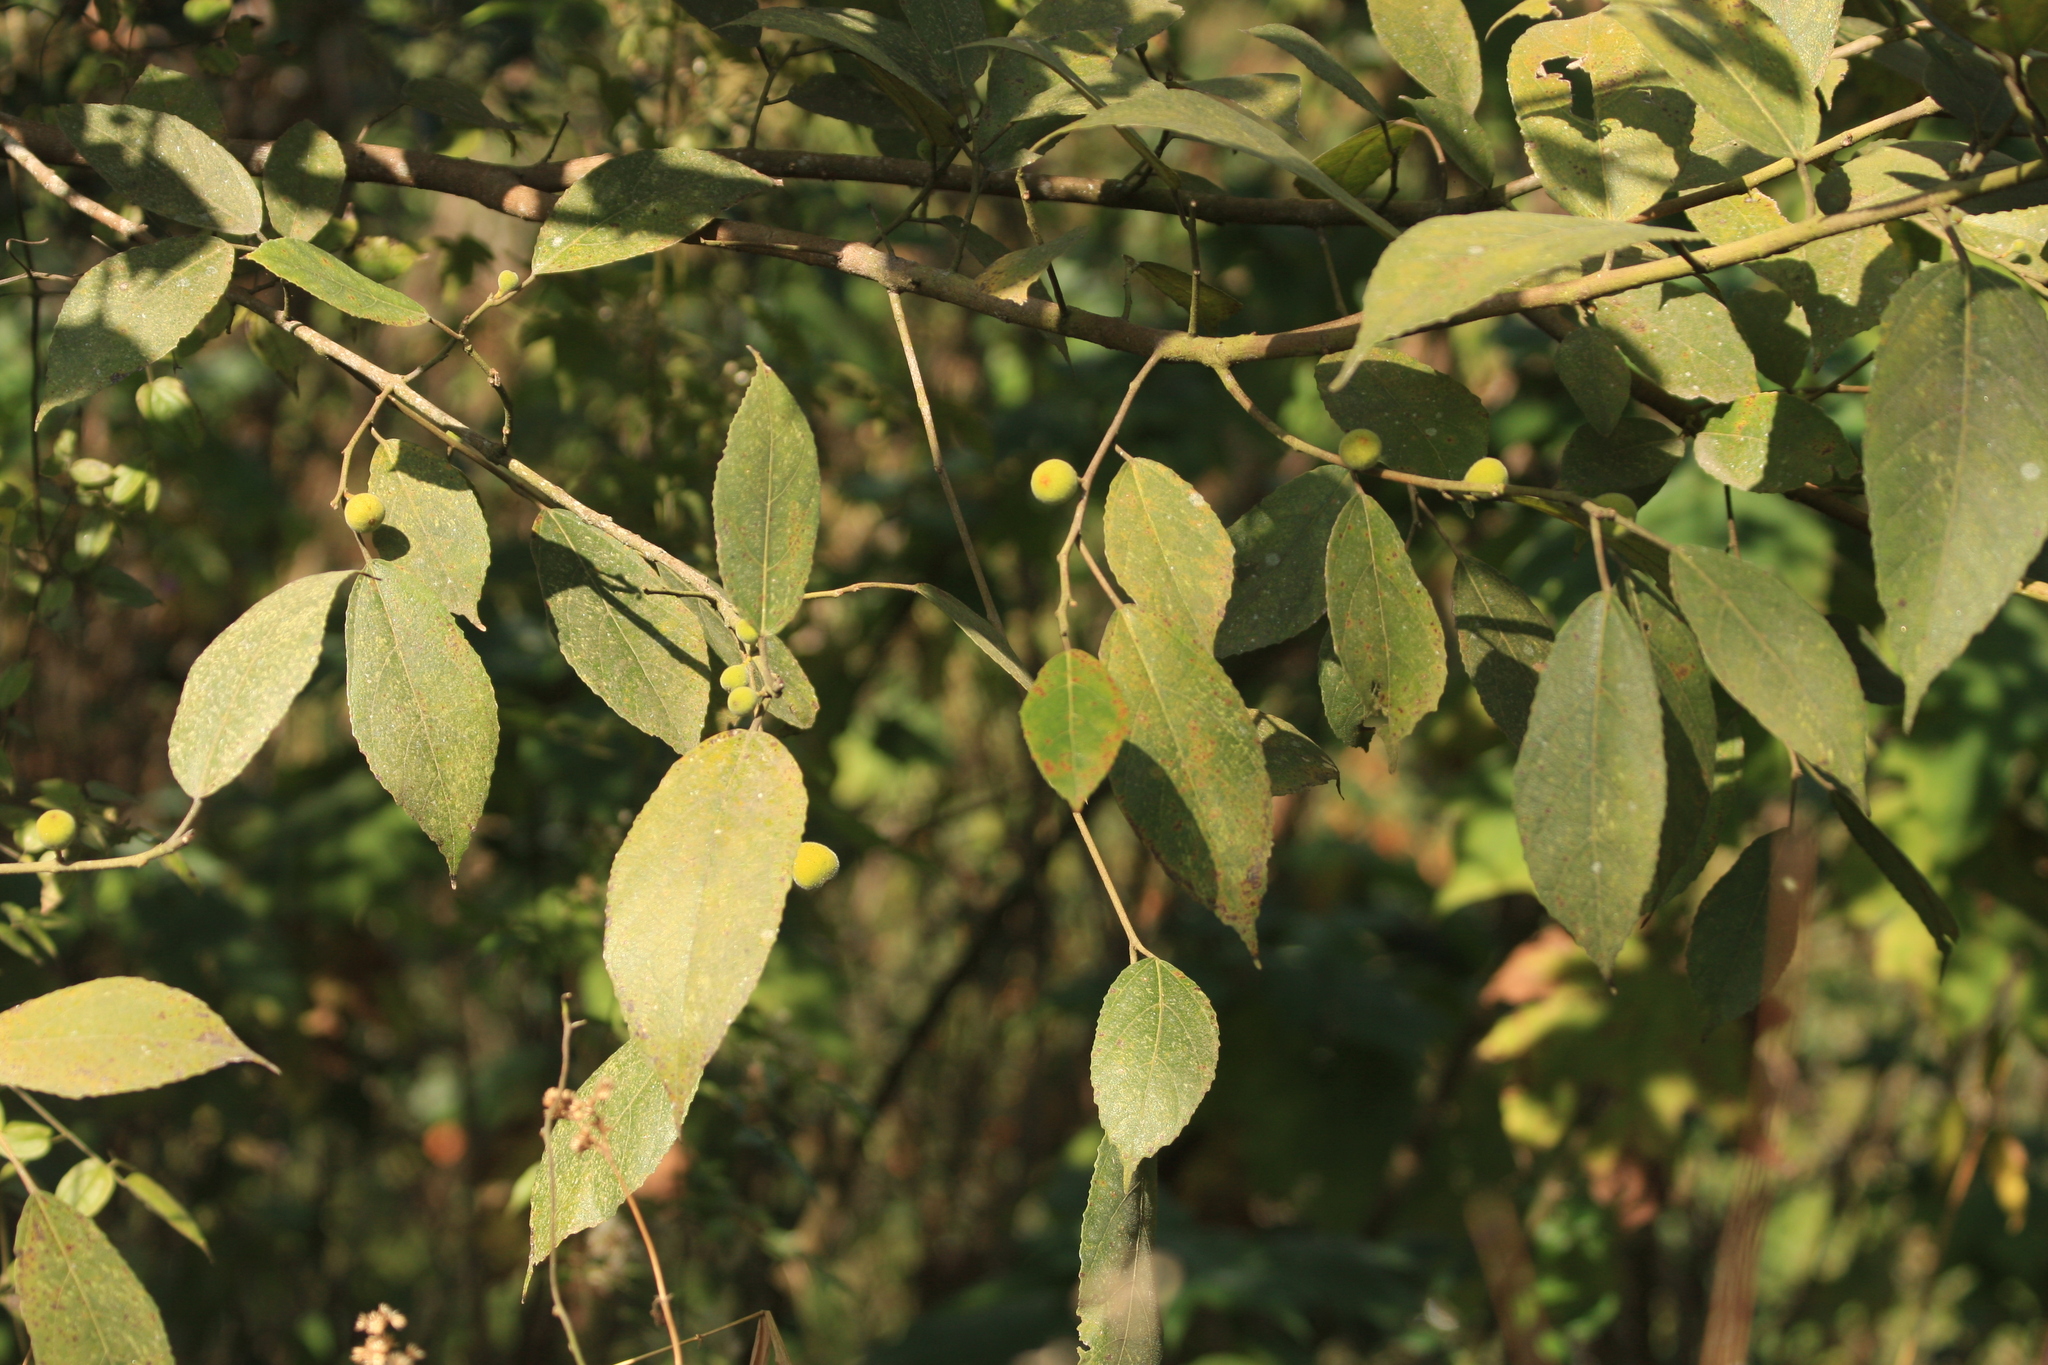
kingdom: Plantae
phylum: Tracheophyta
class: Magnoliopsida
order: Rosales
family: Moraceae
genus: Ficus
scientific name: Ficus exasperata
